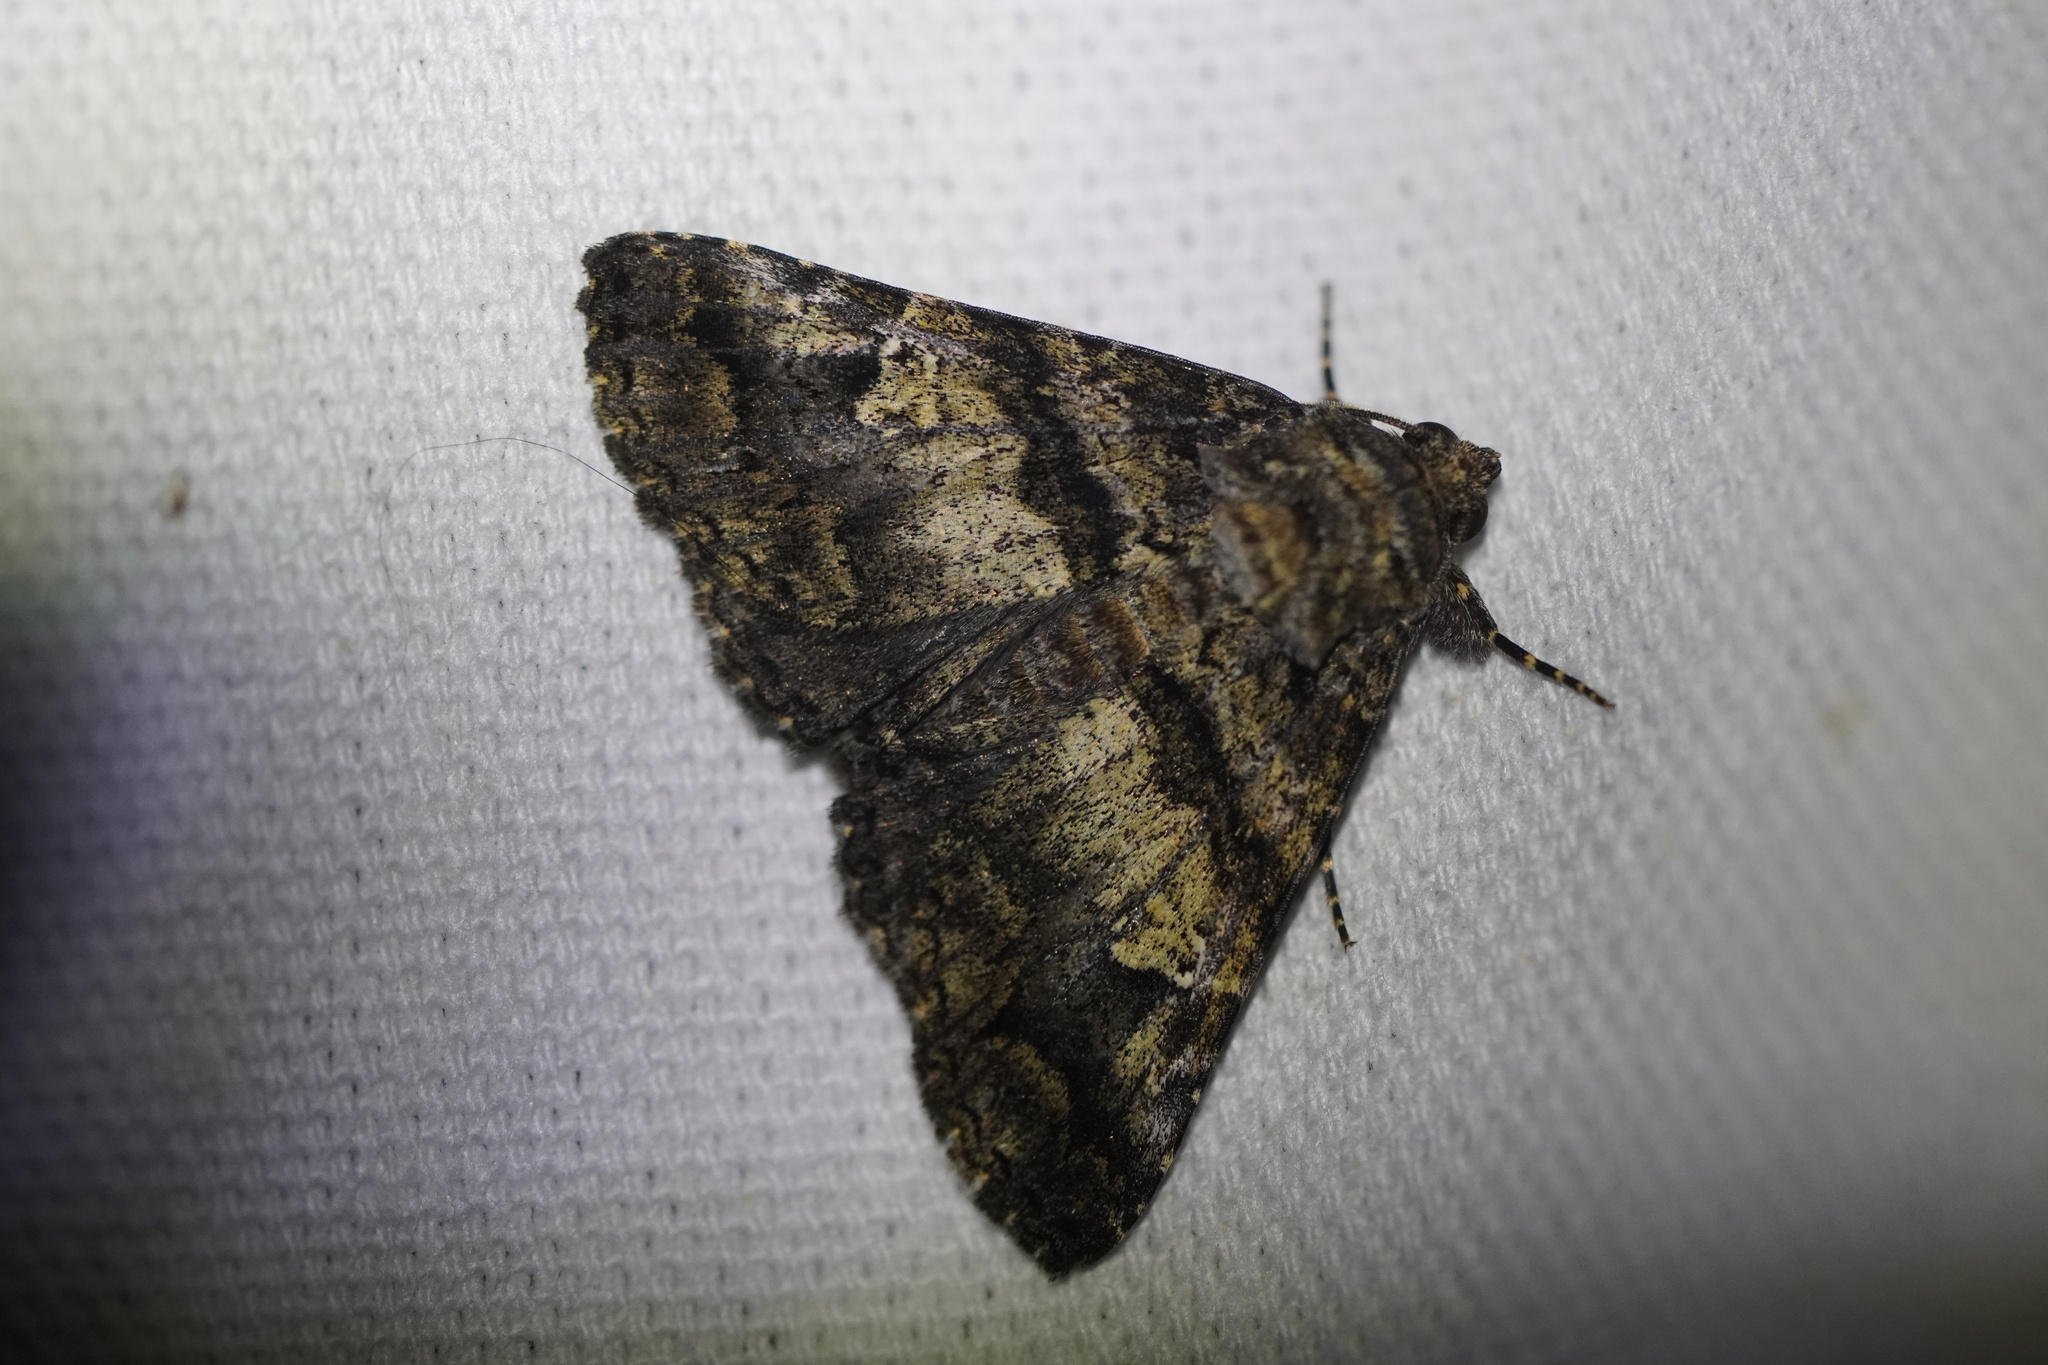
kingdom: Animalia
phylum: Arthropoda
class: Insecta
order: Lepidoptera
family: Erebidae
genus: Metria
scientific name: Metria amella
